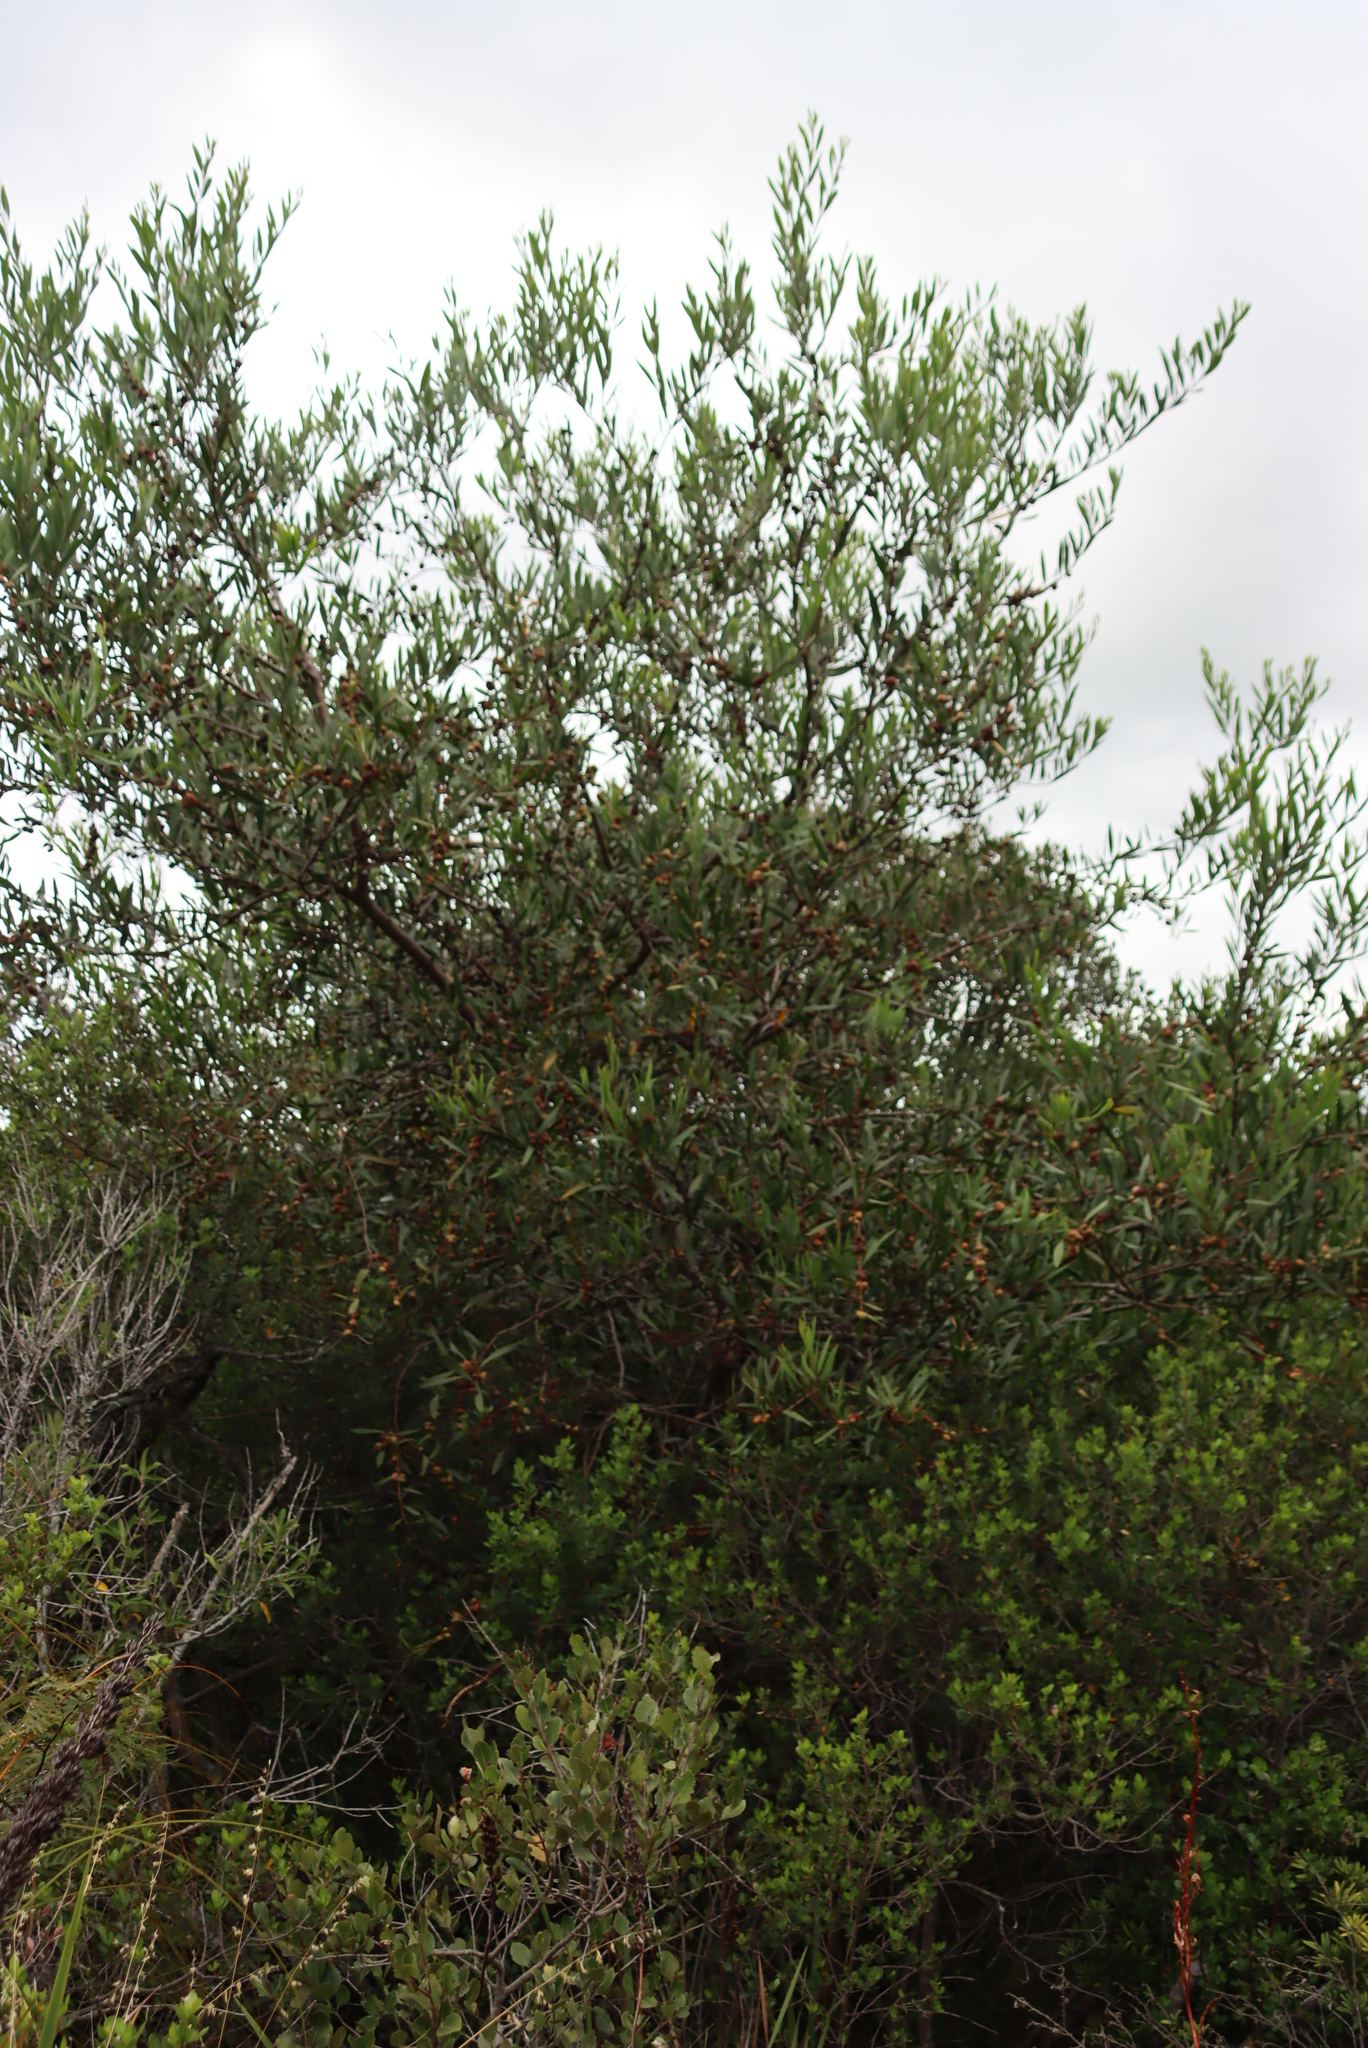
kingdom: Plantae
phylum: Tracheophyta
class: Magnoliopsida
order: Fabales
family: Fabaceae
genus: Acacia
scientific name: Acacia longifolia
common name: Sydney golden wattle
